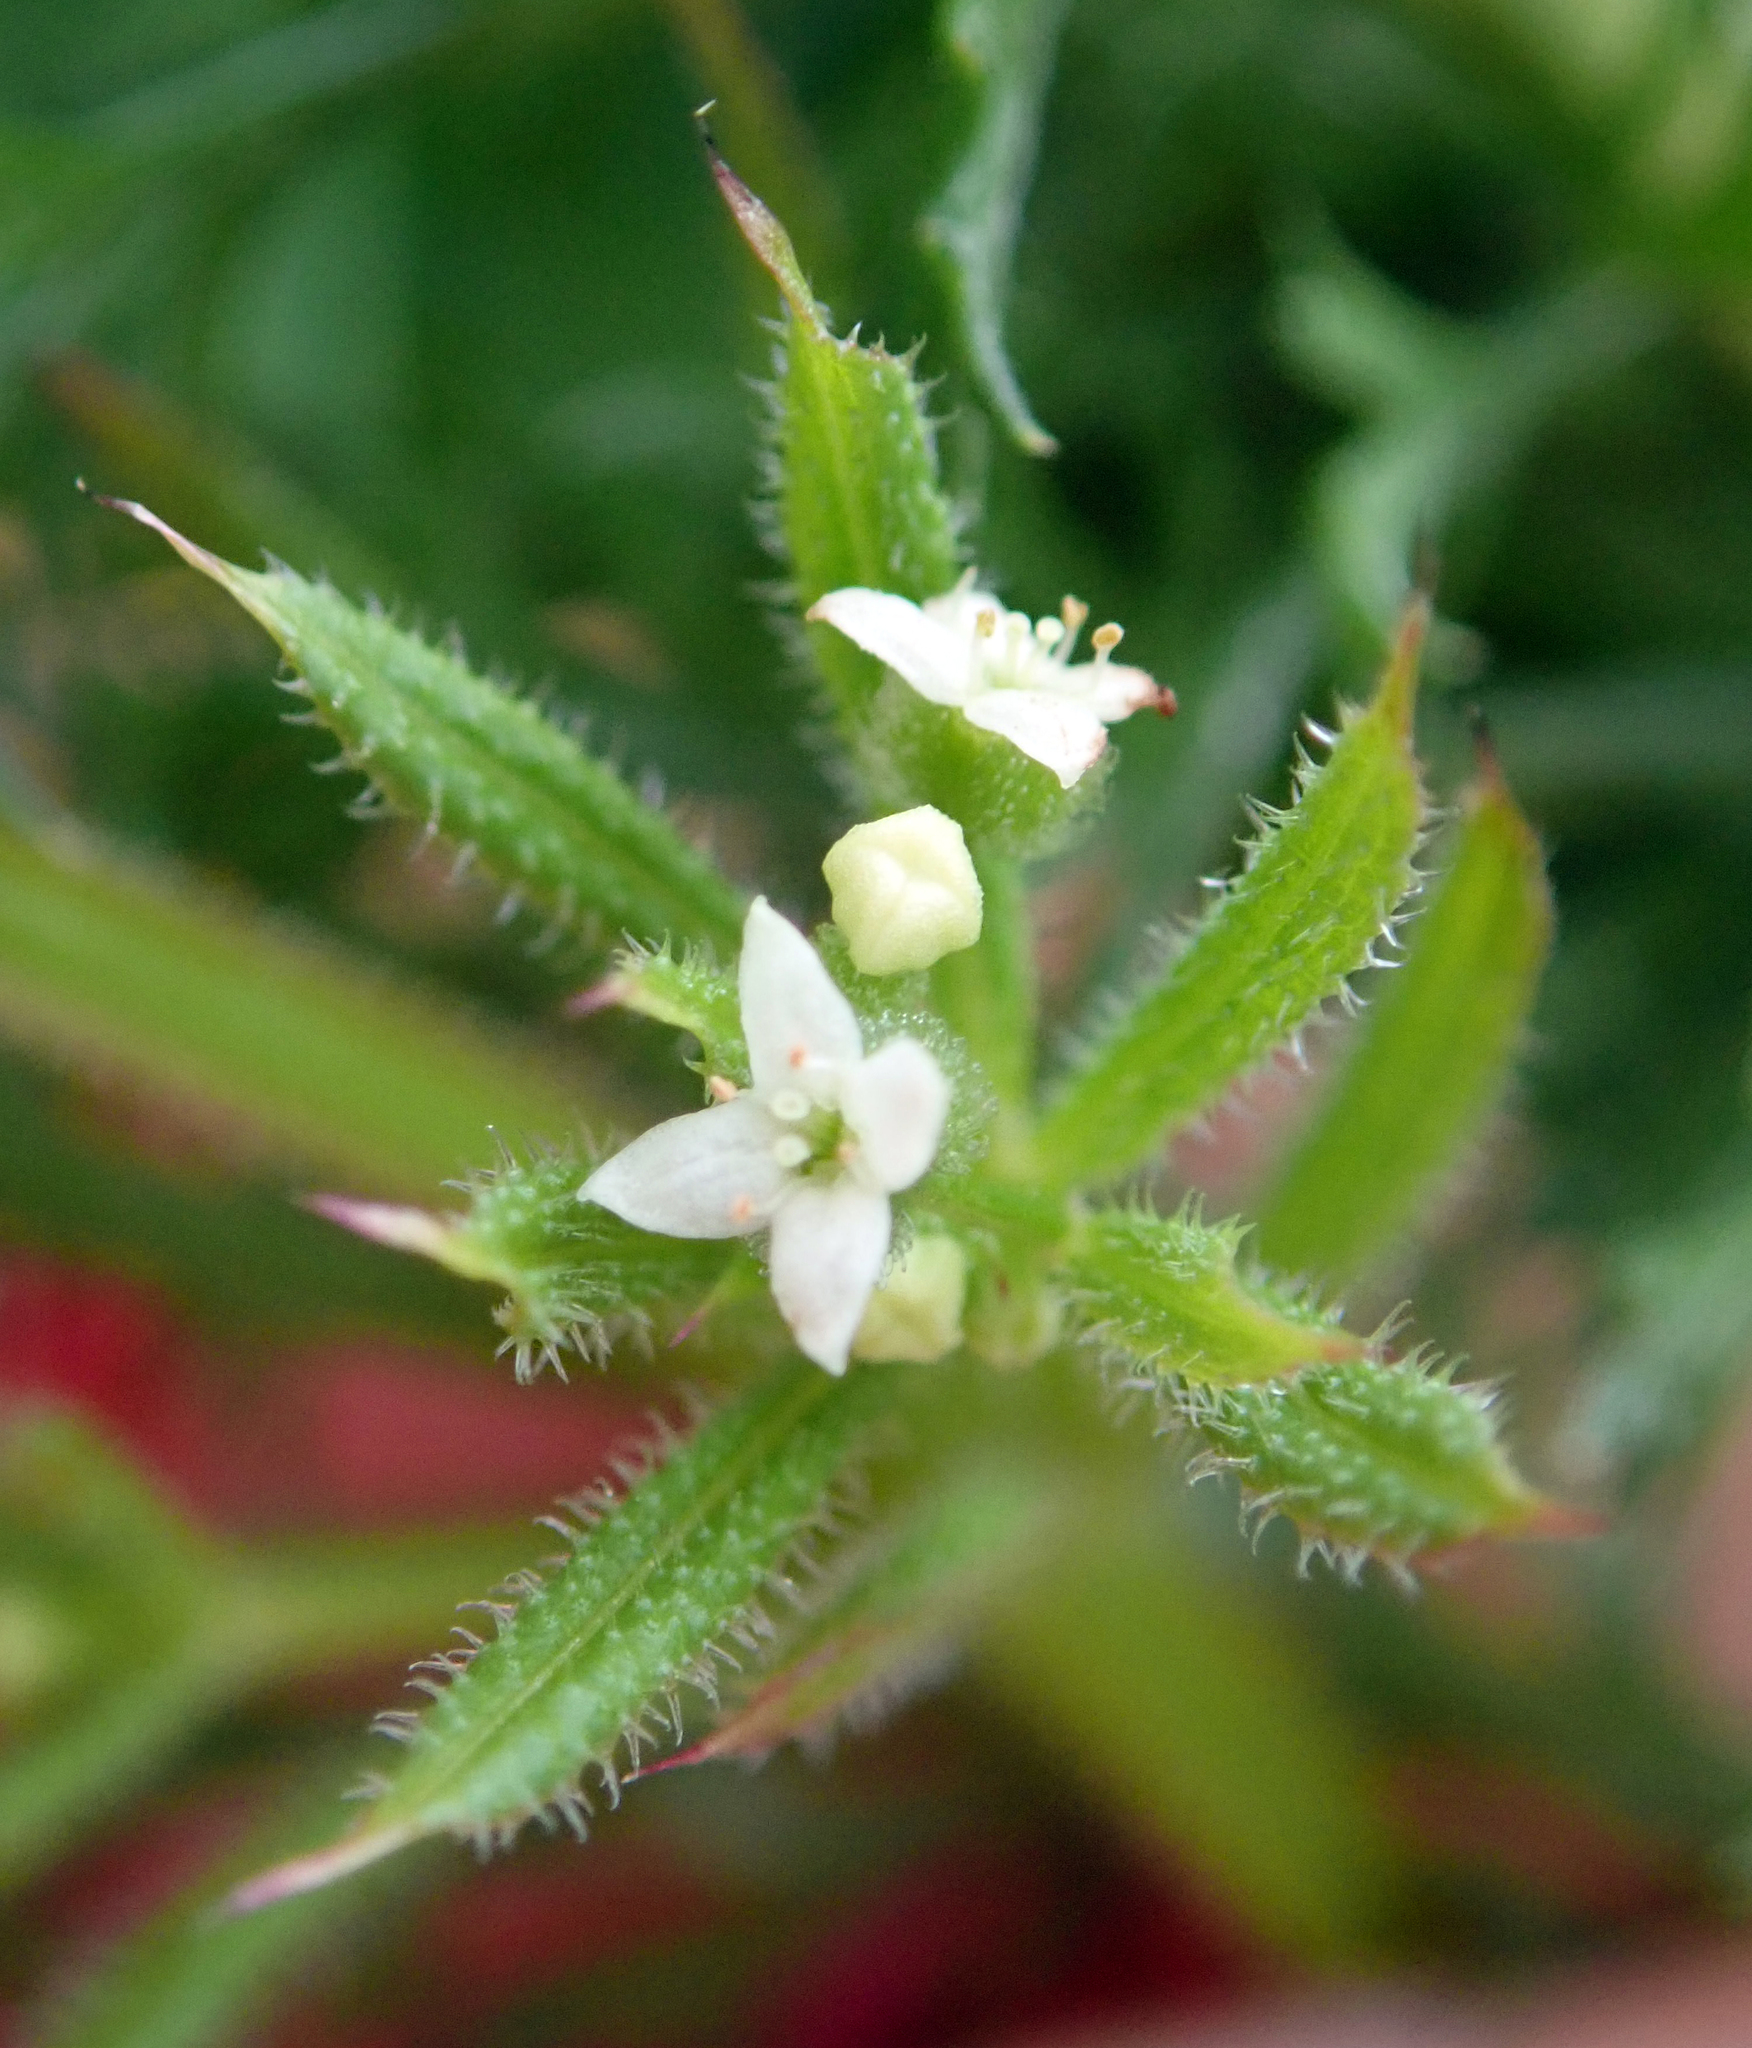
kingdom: Plantae
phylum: Tracheophyta
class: Magnoliopsida
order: Gentianales
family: Rubiaceae
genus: Galium
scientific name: Galium aparine
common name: Cleavers
